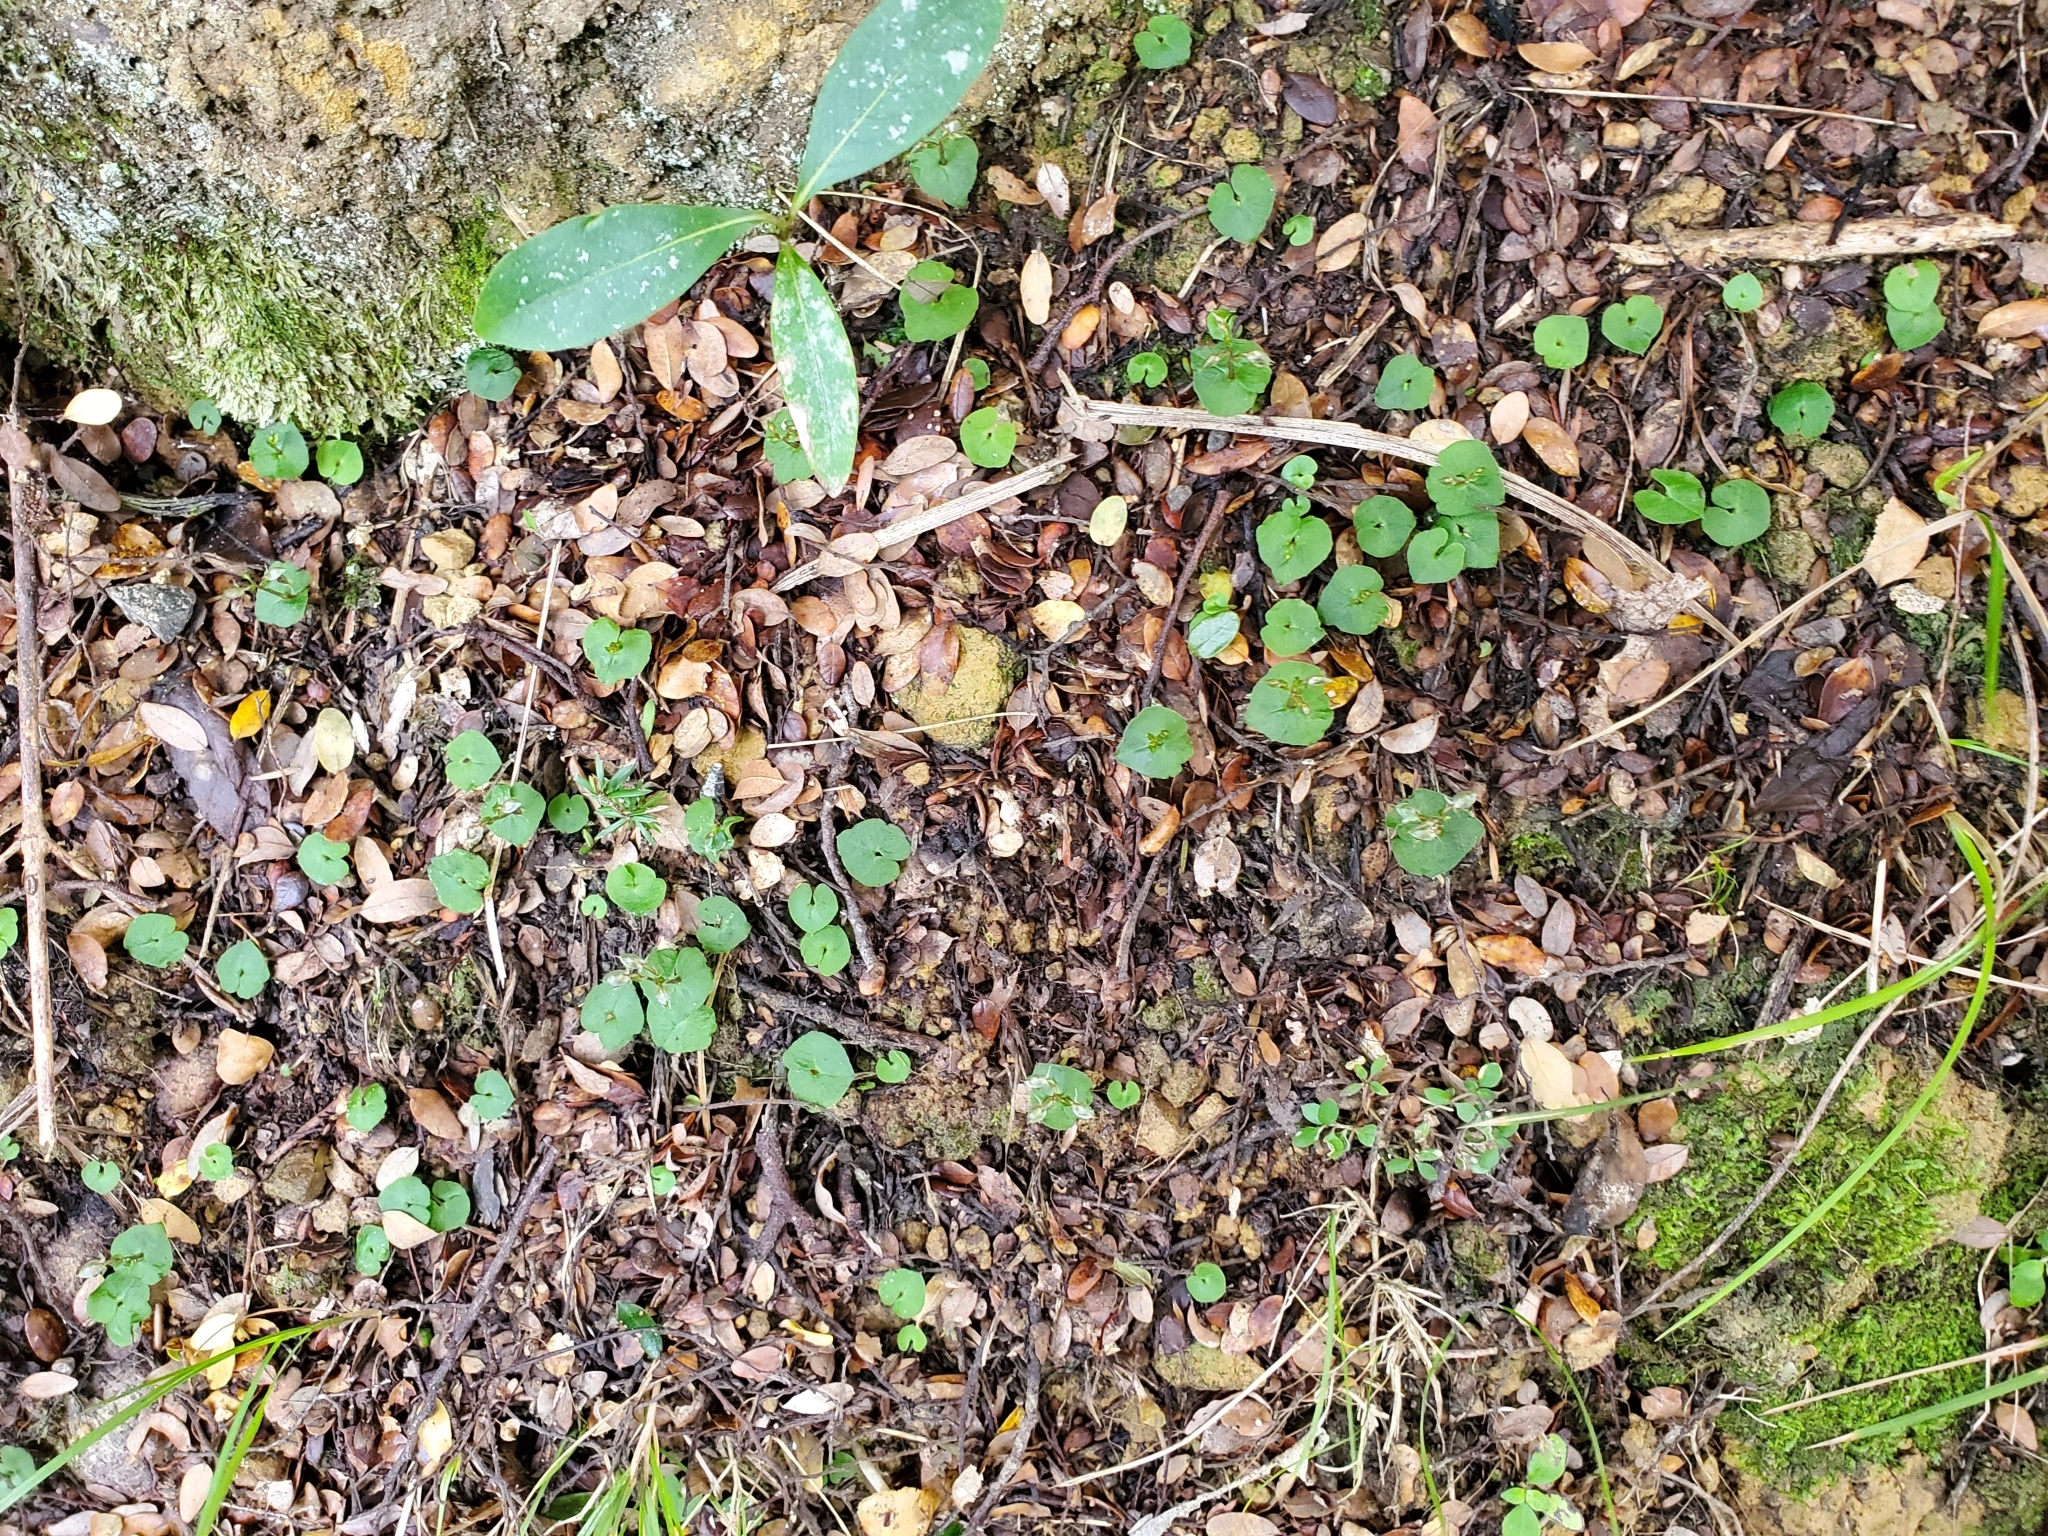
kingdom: Plantae
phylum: Tracheophyta
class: Liliopsida
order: Asparagales
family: Orchidaceae
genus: Acianthus
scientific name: Acianthus sinclairii
